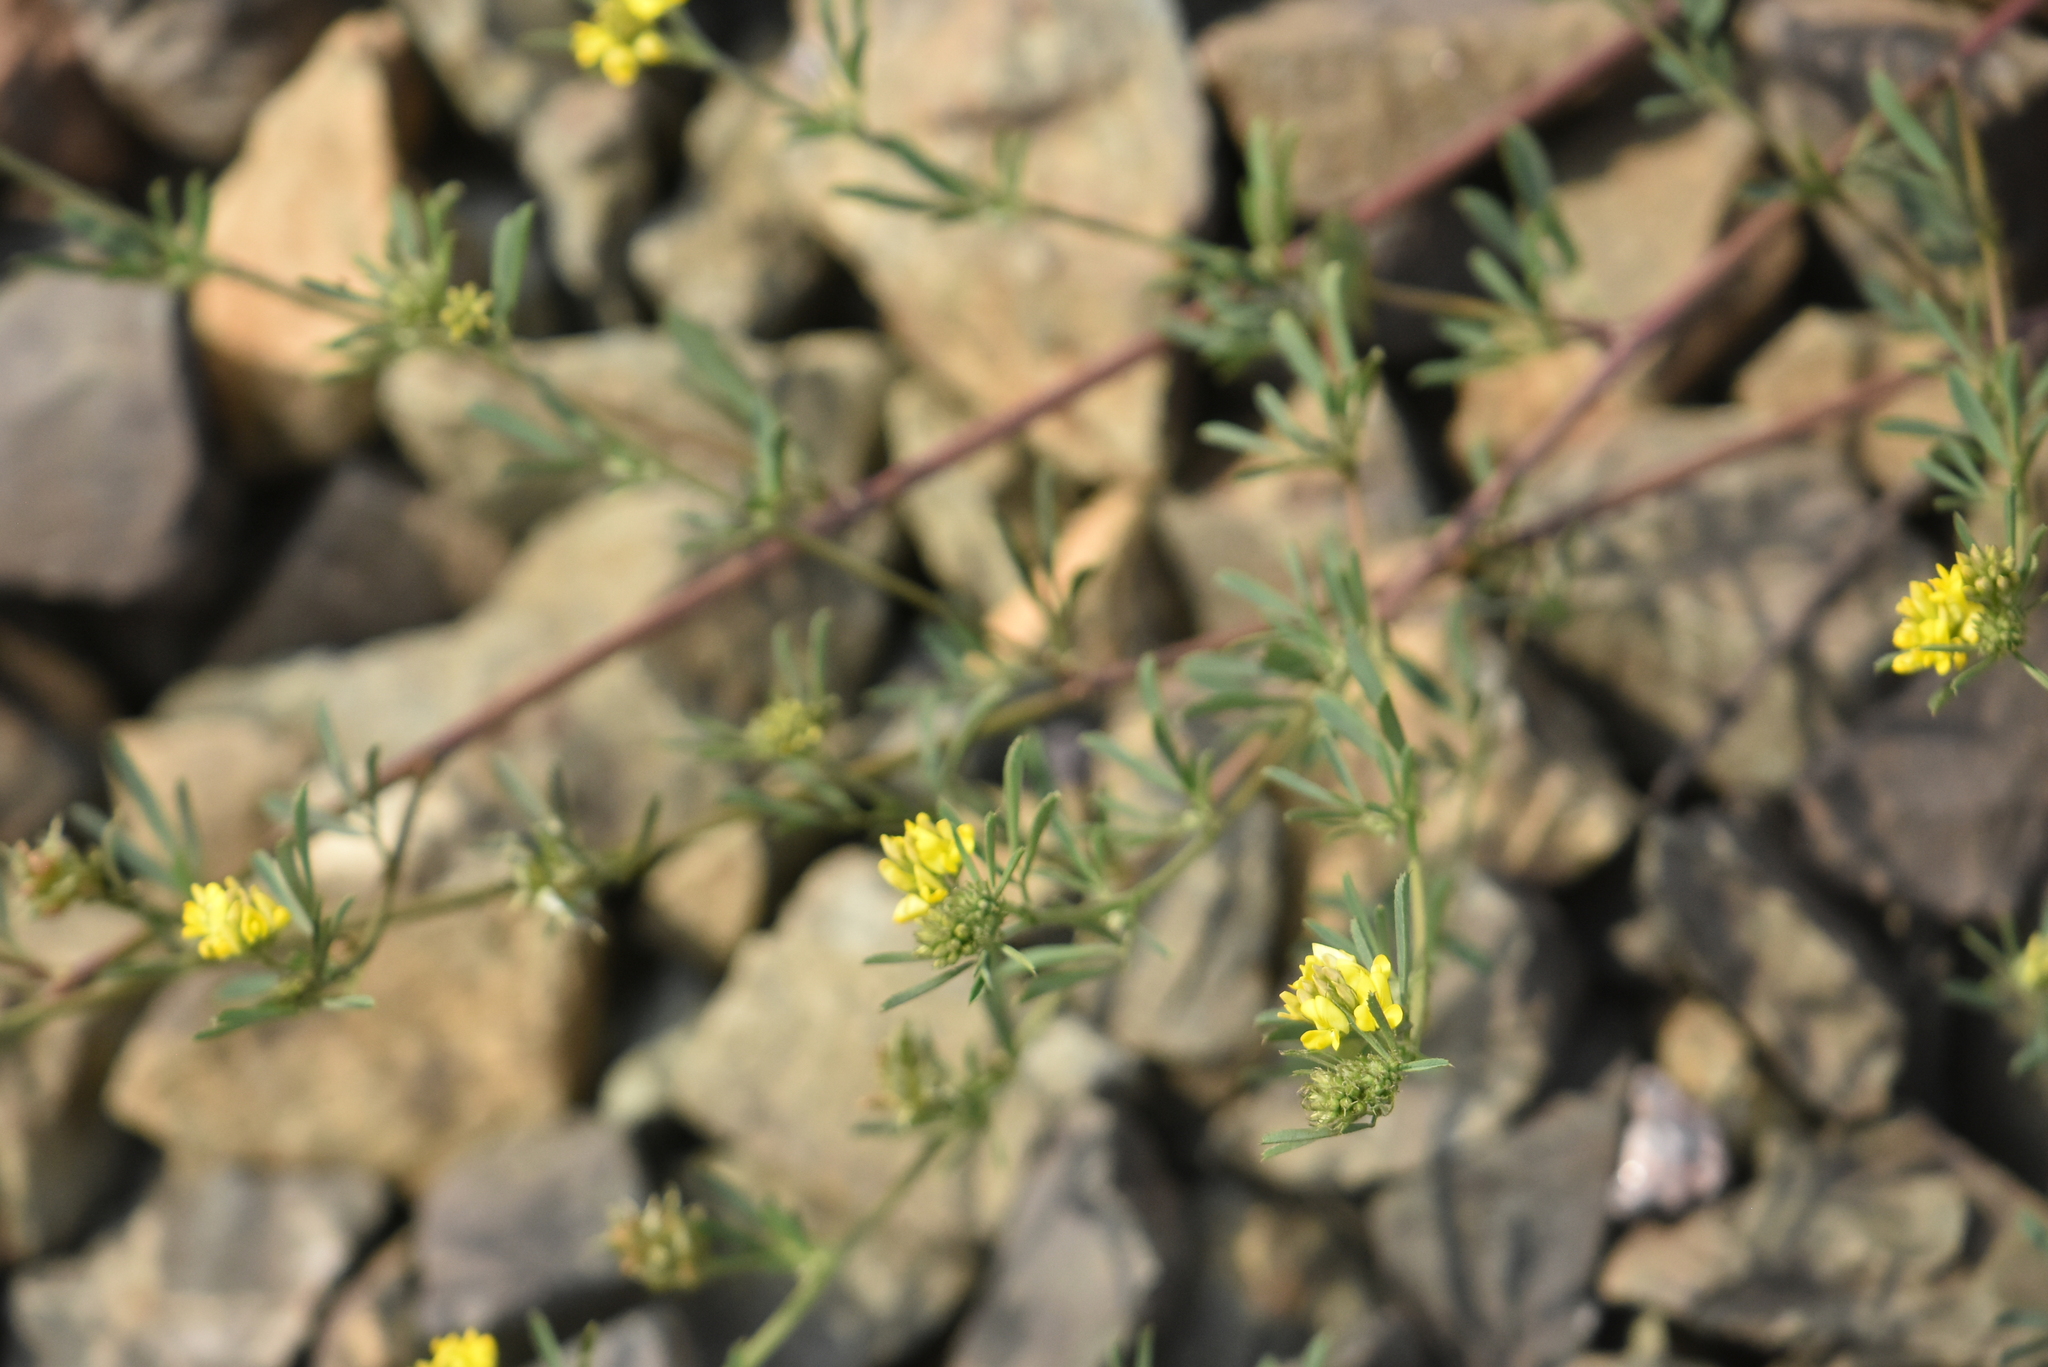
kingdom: Plantae
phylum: Tracheophyta
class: Magnoliopsida
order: Fabales
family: Fabaceae
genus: Medicago
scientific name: Medicago falcata
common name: Sickle medick
